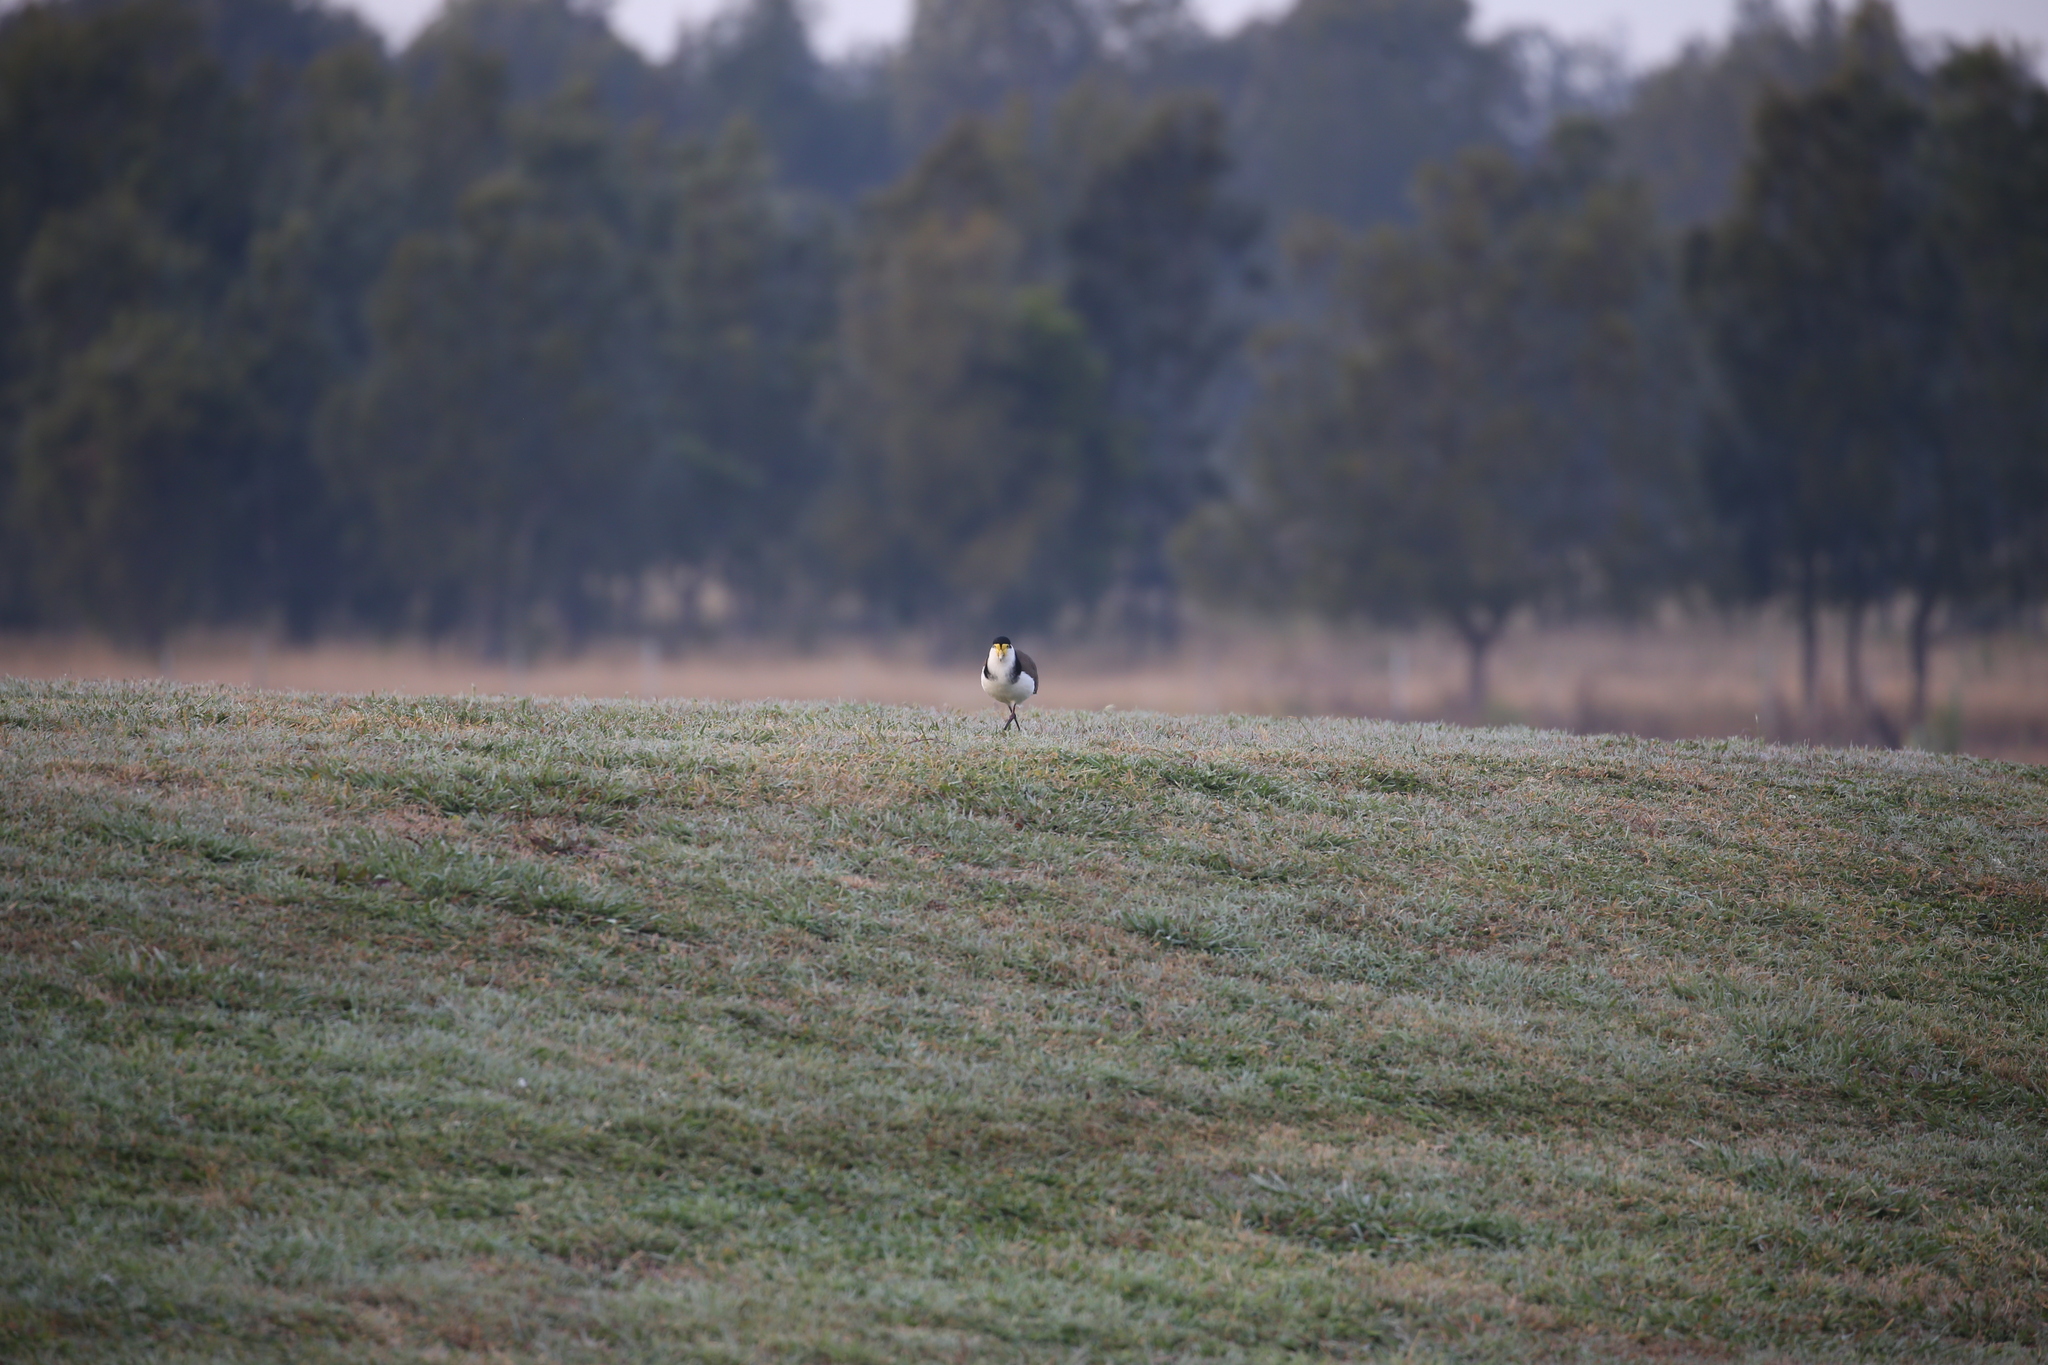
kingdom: Animalia
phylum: Chordata
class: Aves
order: Charadriiformes
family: Charadriidae
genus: Vanellus
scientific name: Vanellus miles
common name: Masked lapwing
